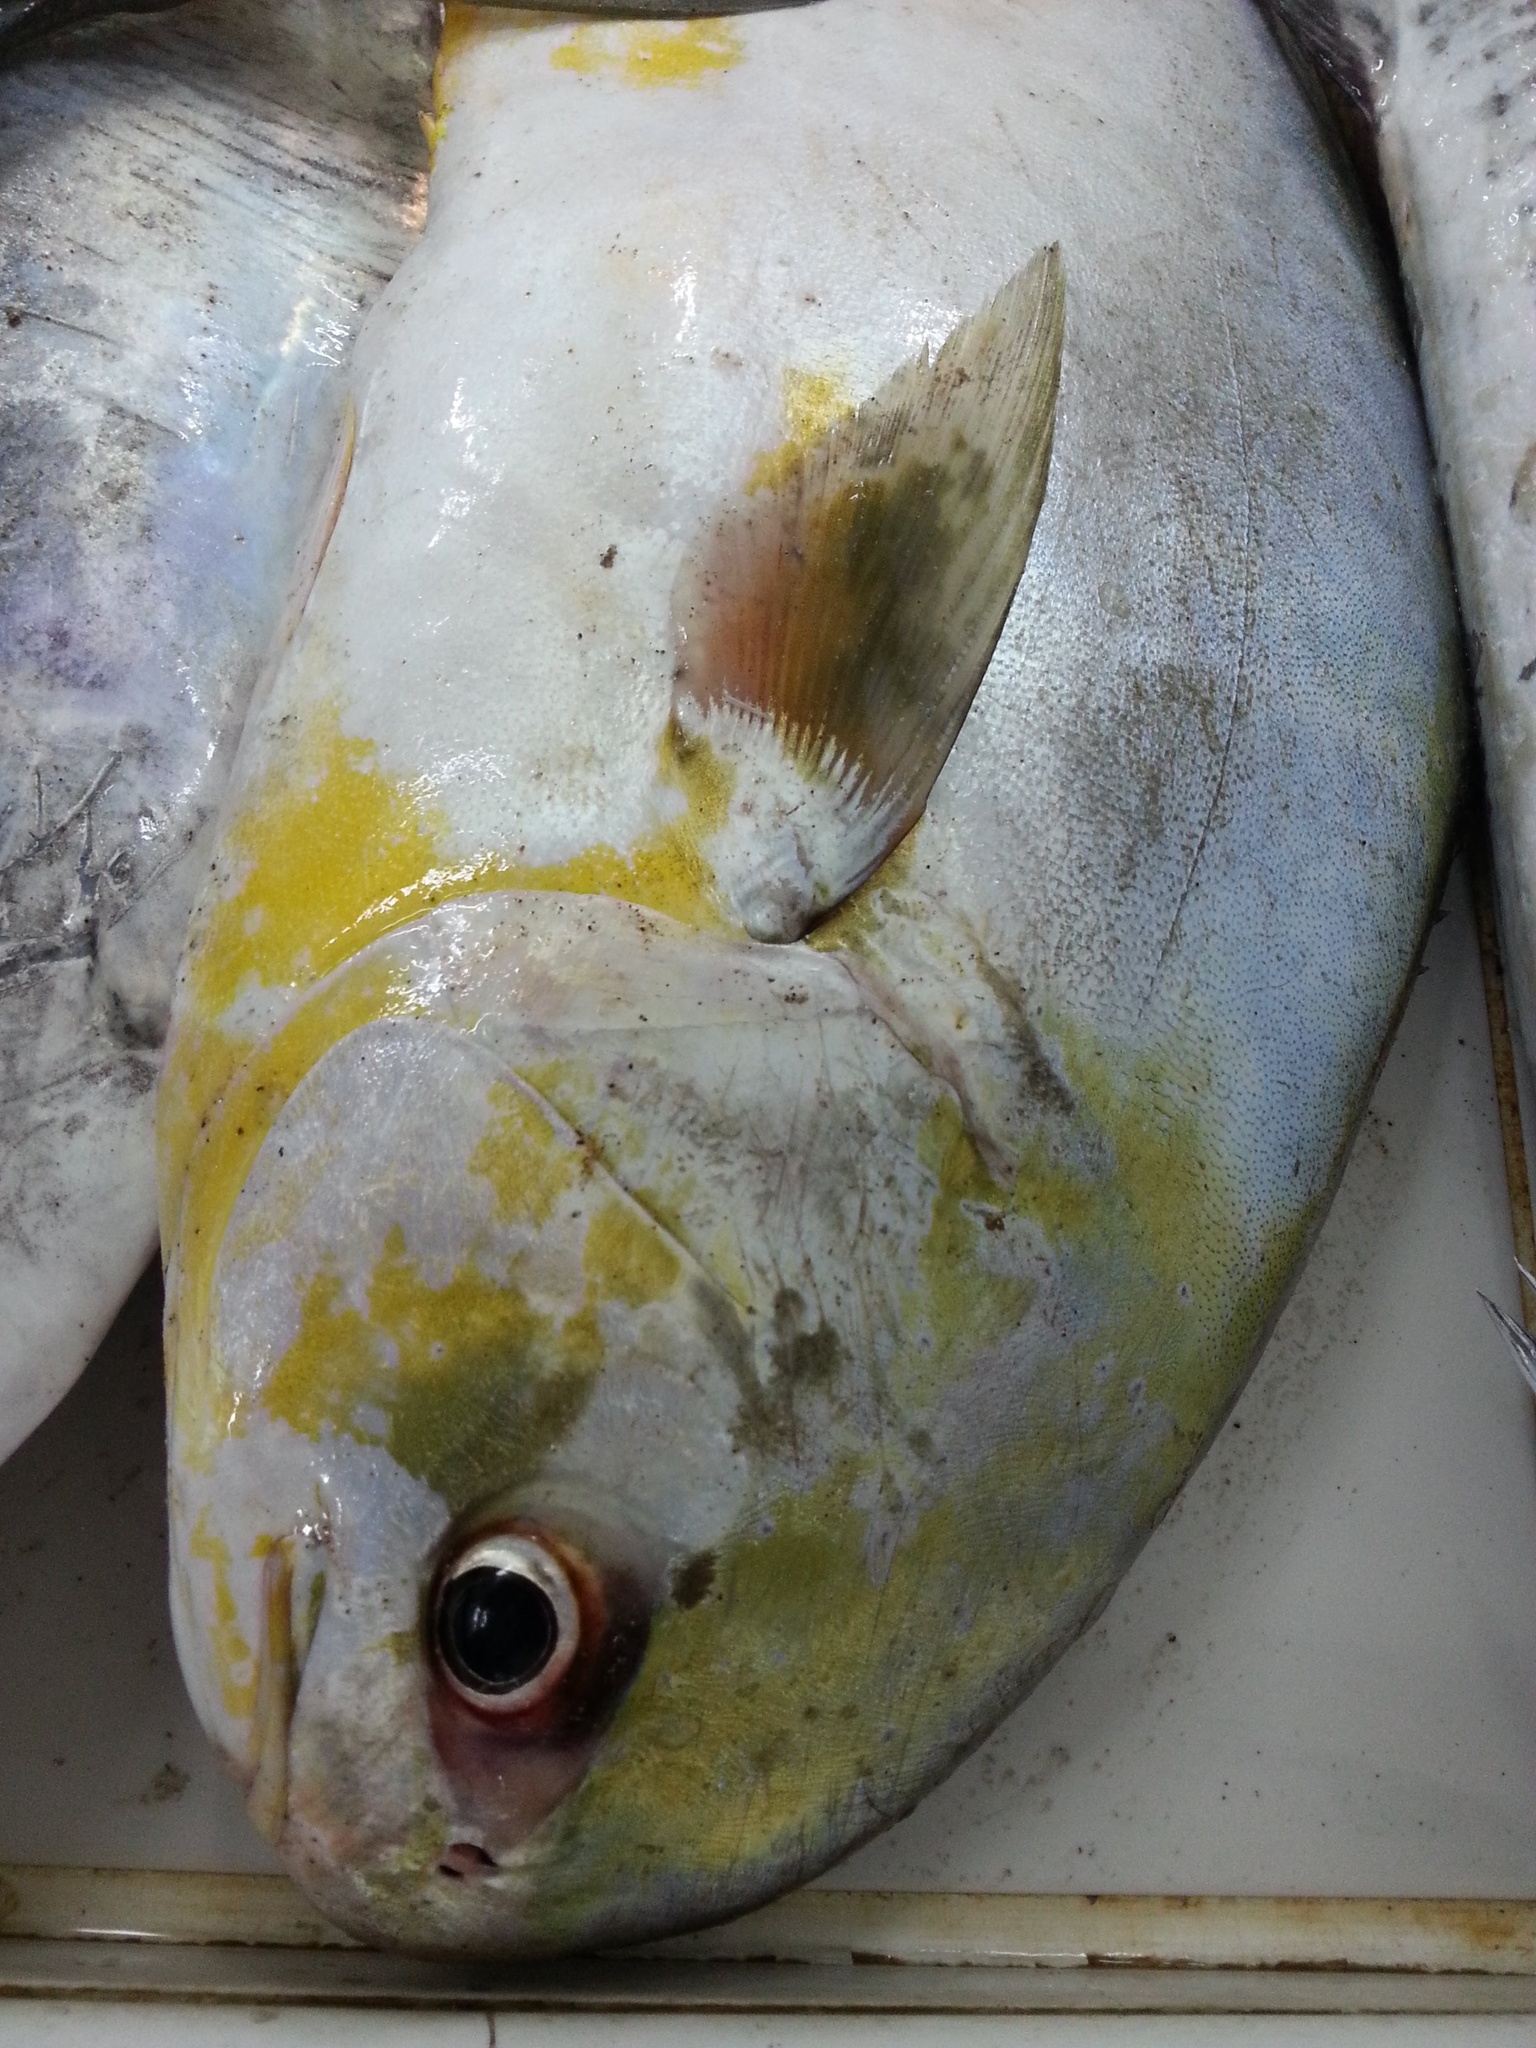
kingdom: Animalia
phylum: Chordata
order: Perciformes
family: Carangidae
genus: Trachinotus
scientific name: Trachinotus blochii
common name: Snubnose pompano
